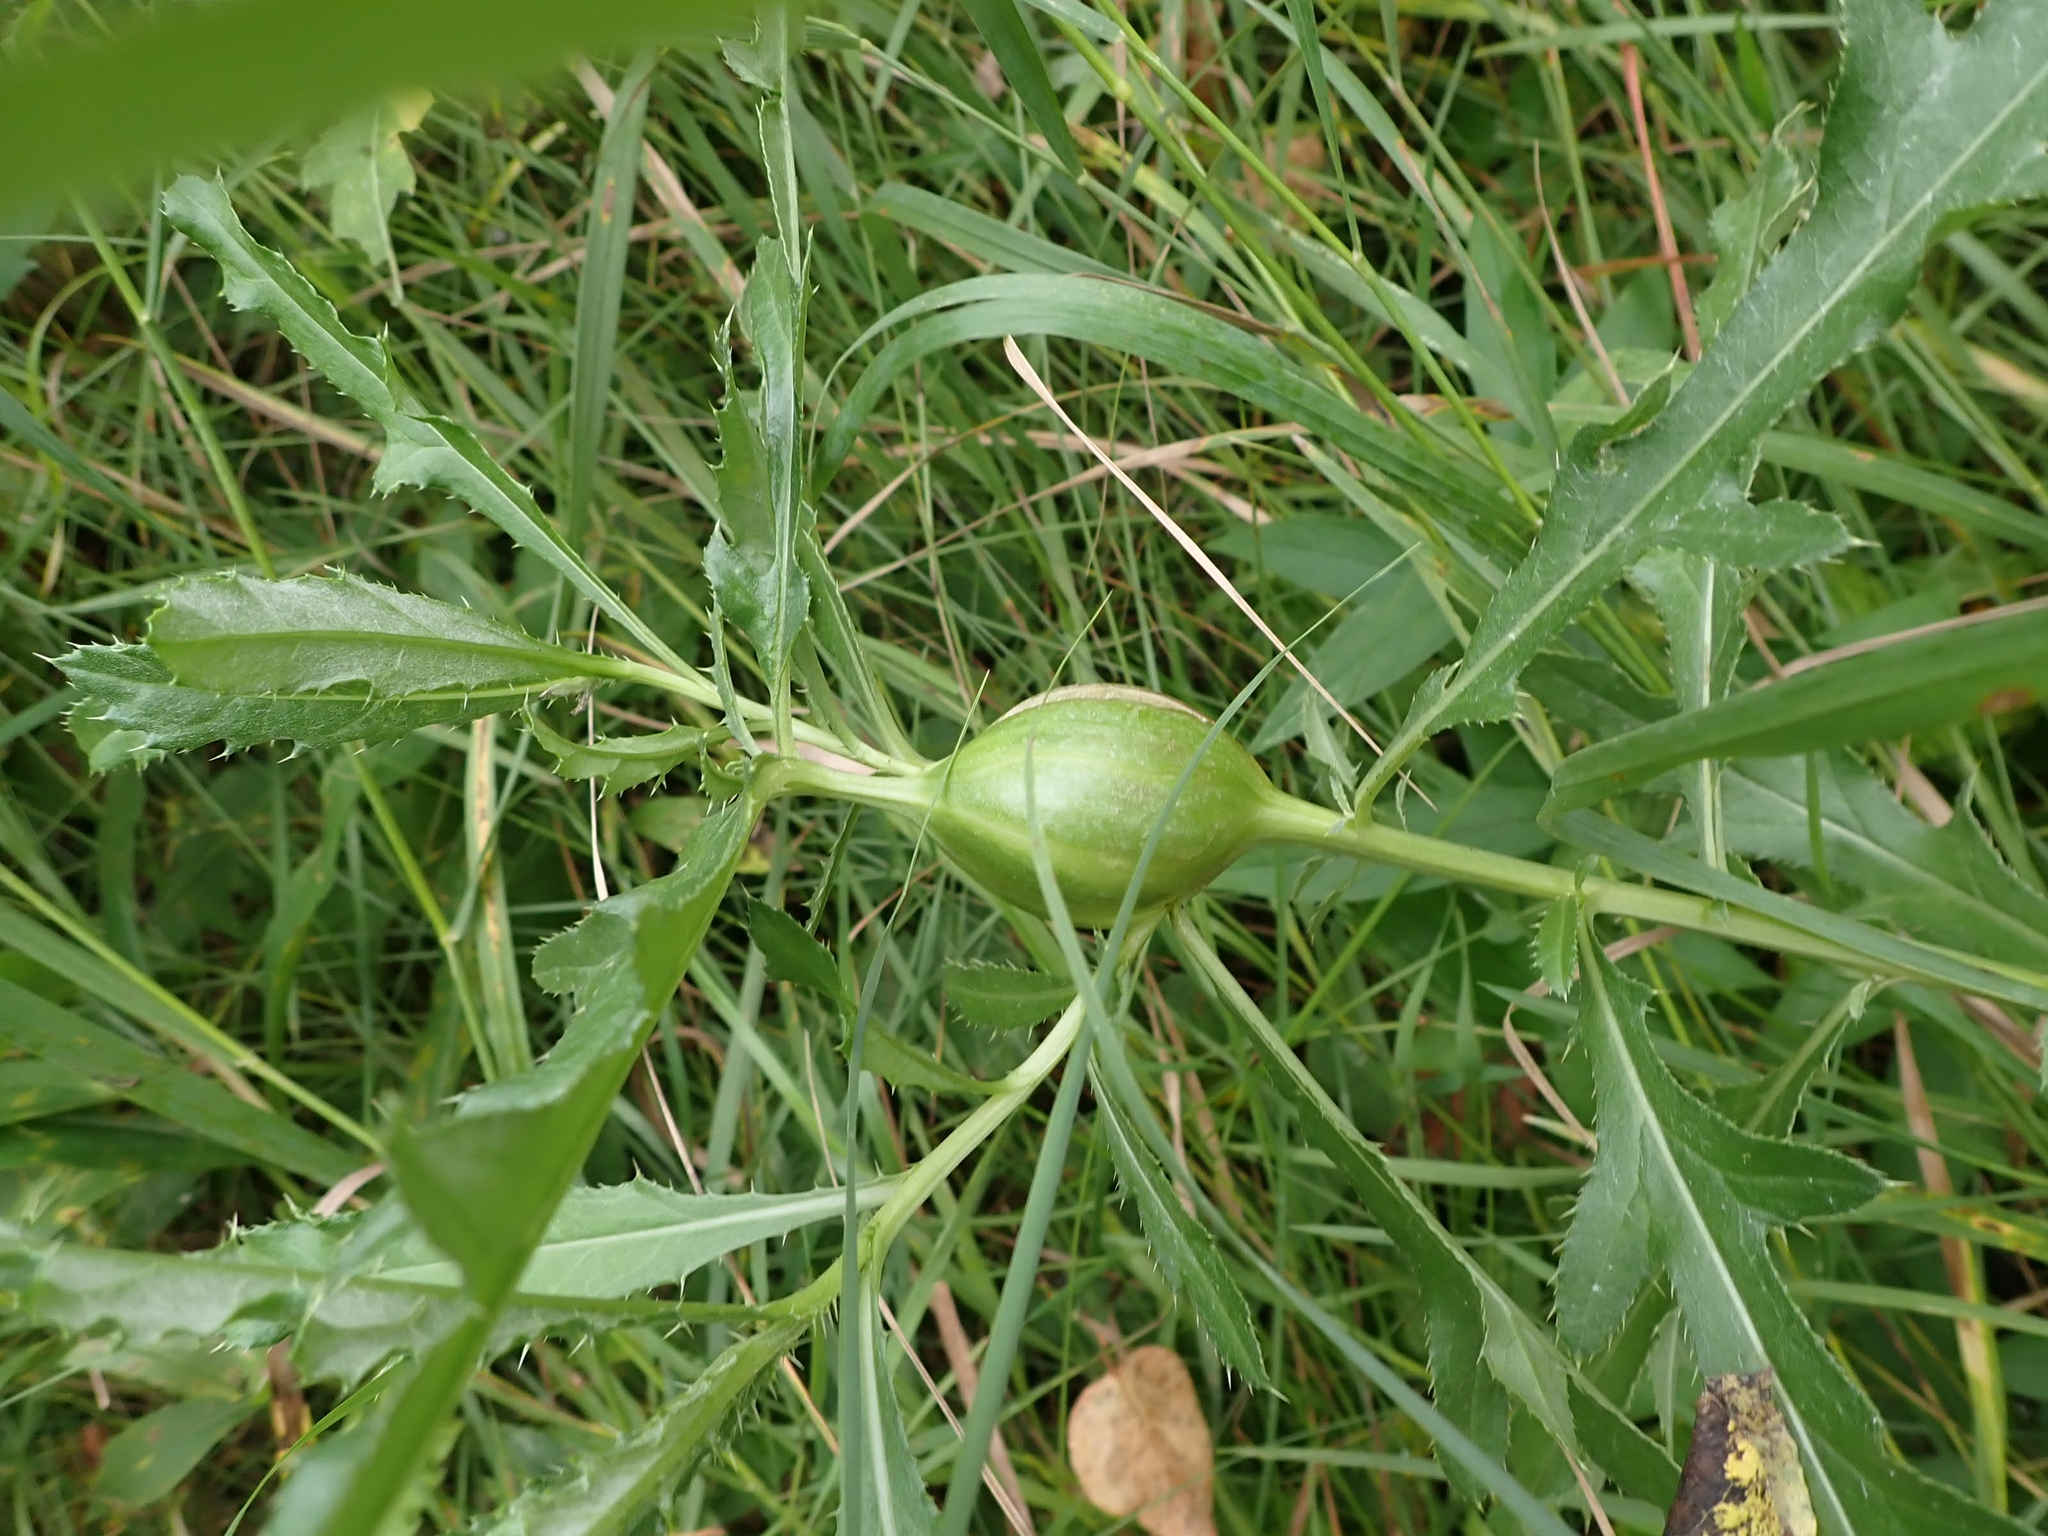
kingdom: Animalia
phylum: Arthropoda
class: Insecta
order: Diptera
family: Tephritidae
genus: Urophora
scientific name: Urophora cardui
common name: Fruit fly
